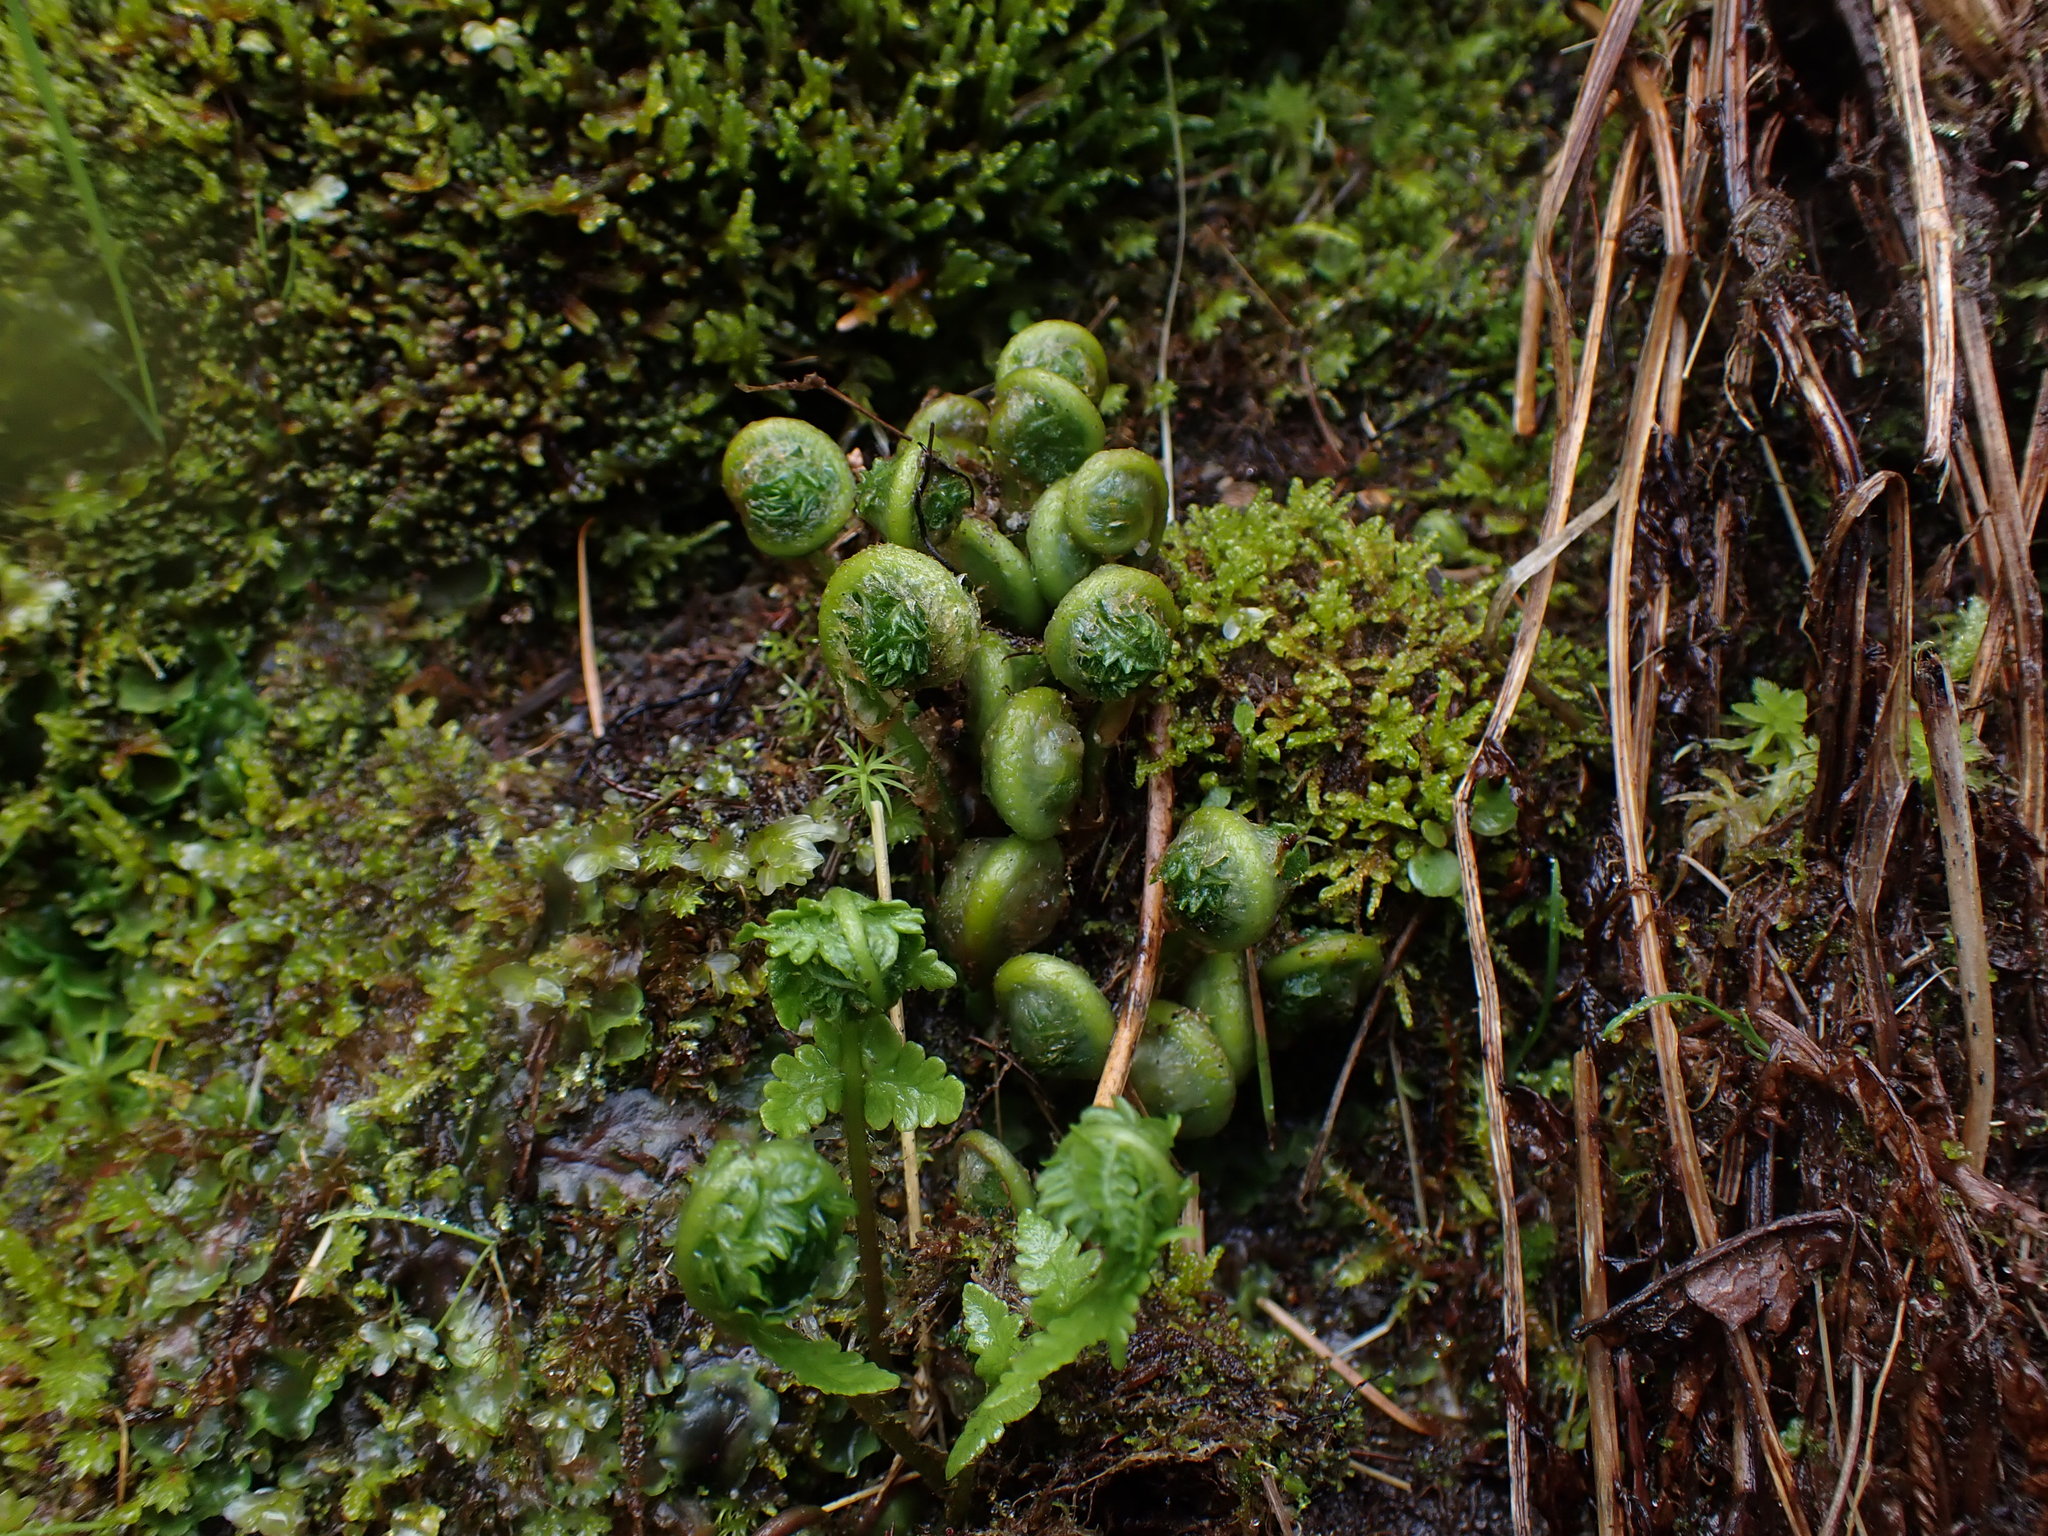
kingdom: Plantae
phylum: Tracheophyta
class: Polypodiopsida
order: Polypodiales
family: Thelypteridaceae
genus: Oreopteris
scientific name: Oreopteris quelpartensis
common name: Mountain fern
